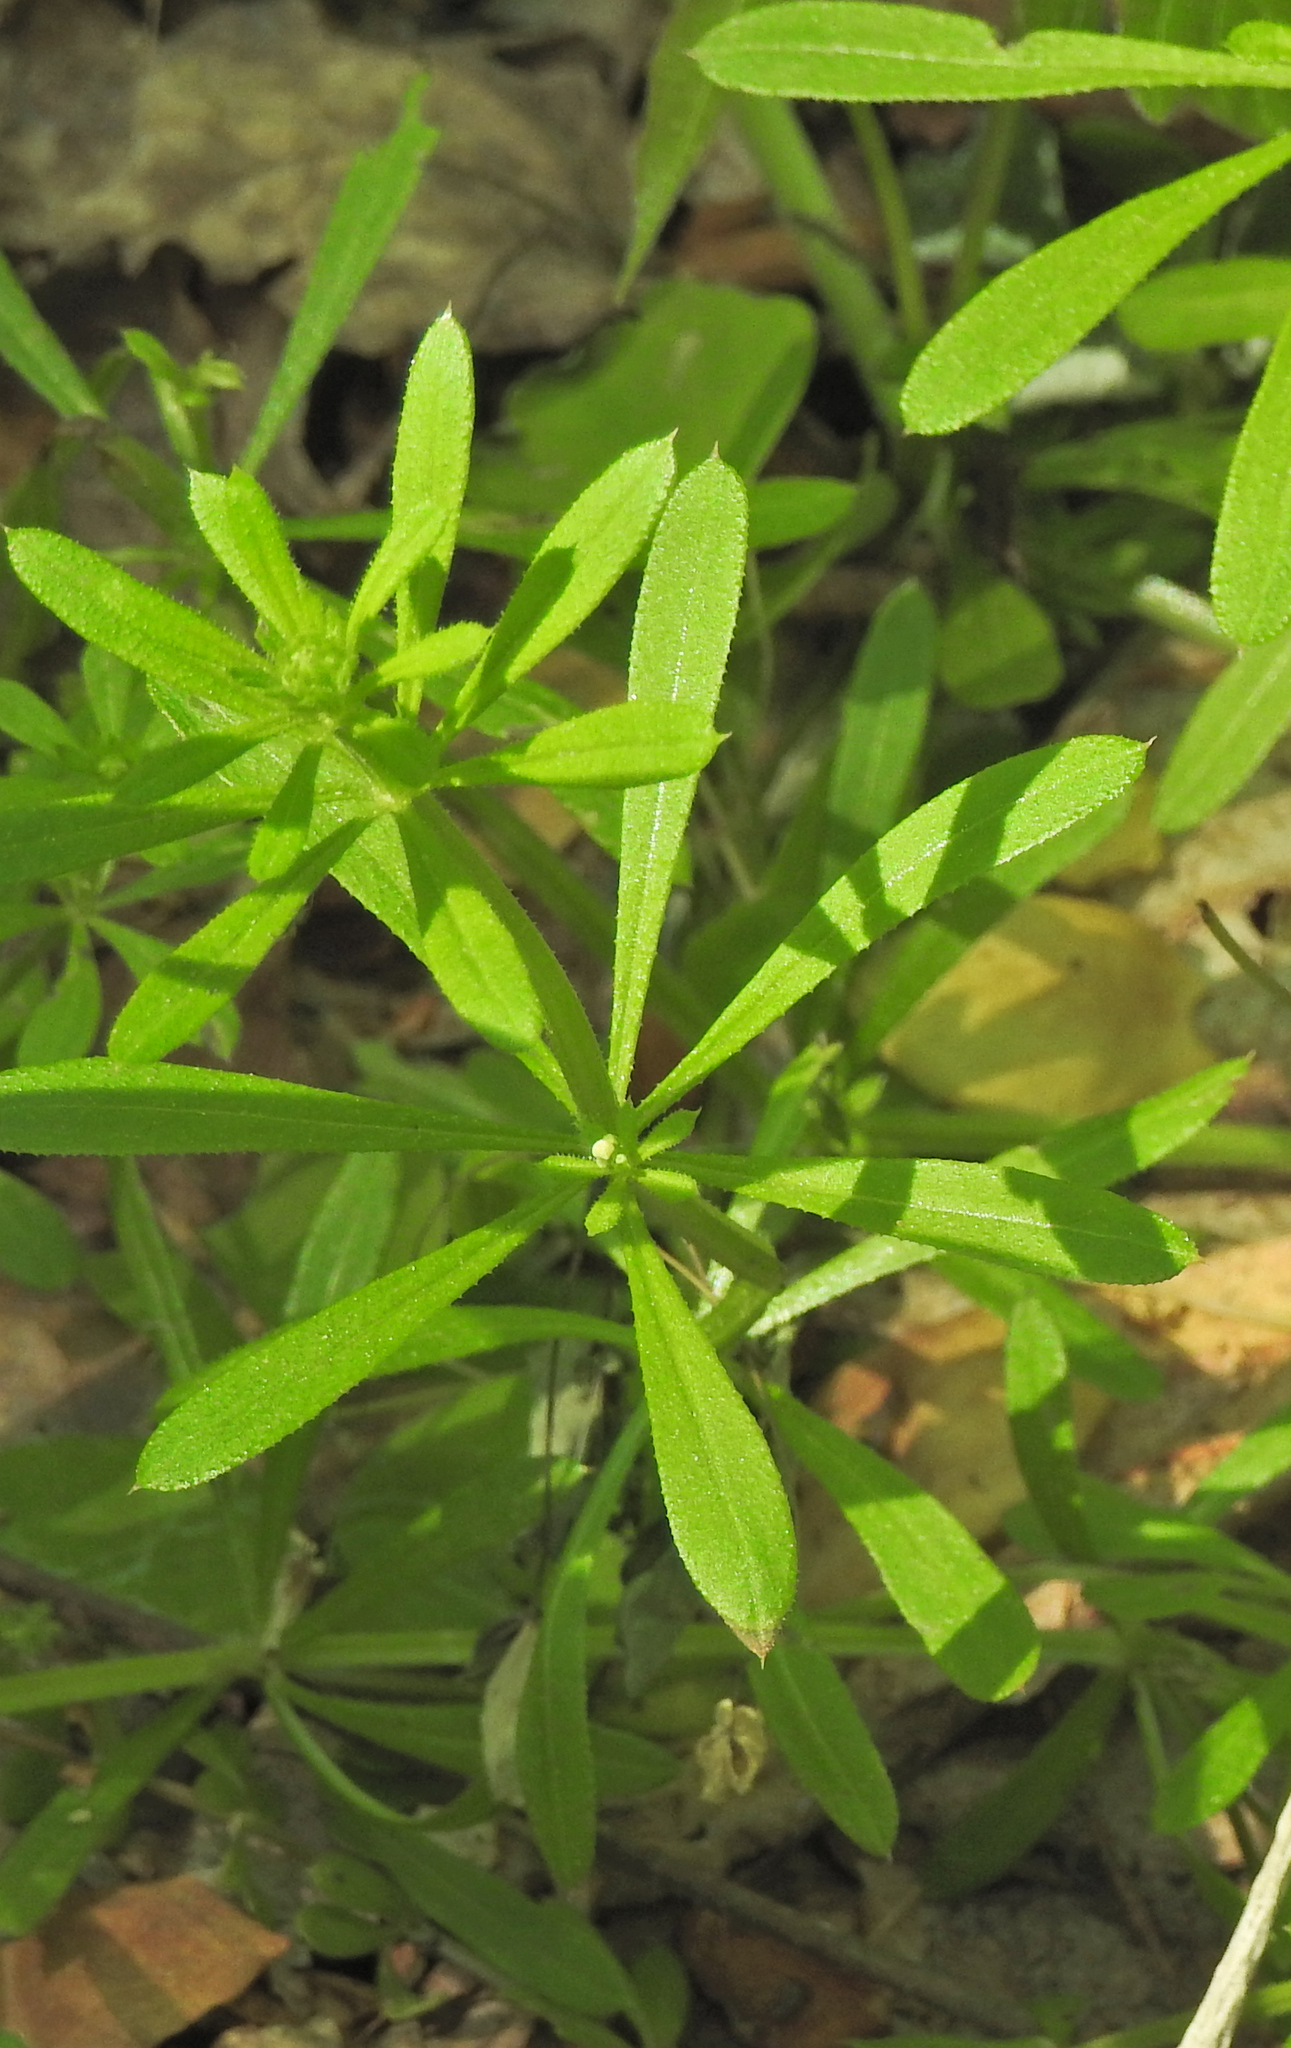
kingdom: Plantae
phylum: Tracheophyta
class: Magnoliopsida
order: Gentianales
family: Rubiaceae
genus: Galium
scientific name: Galium aparine
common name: Cleavers
